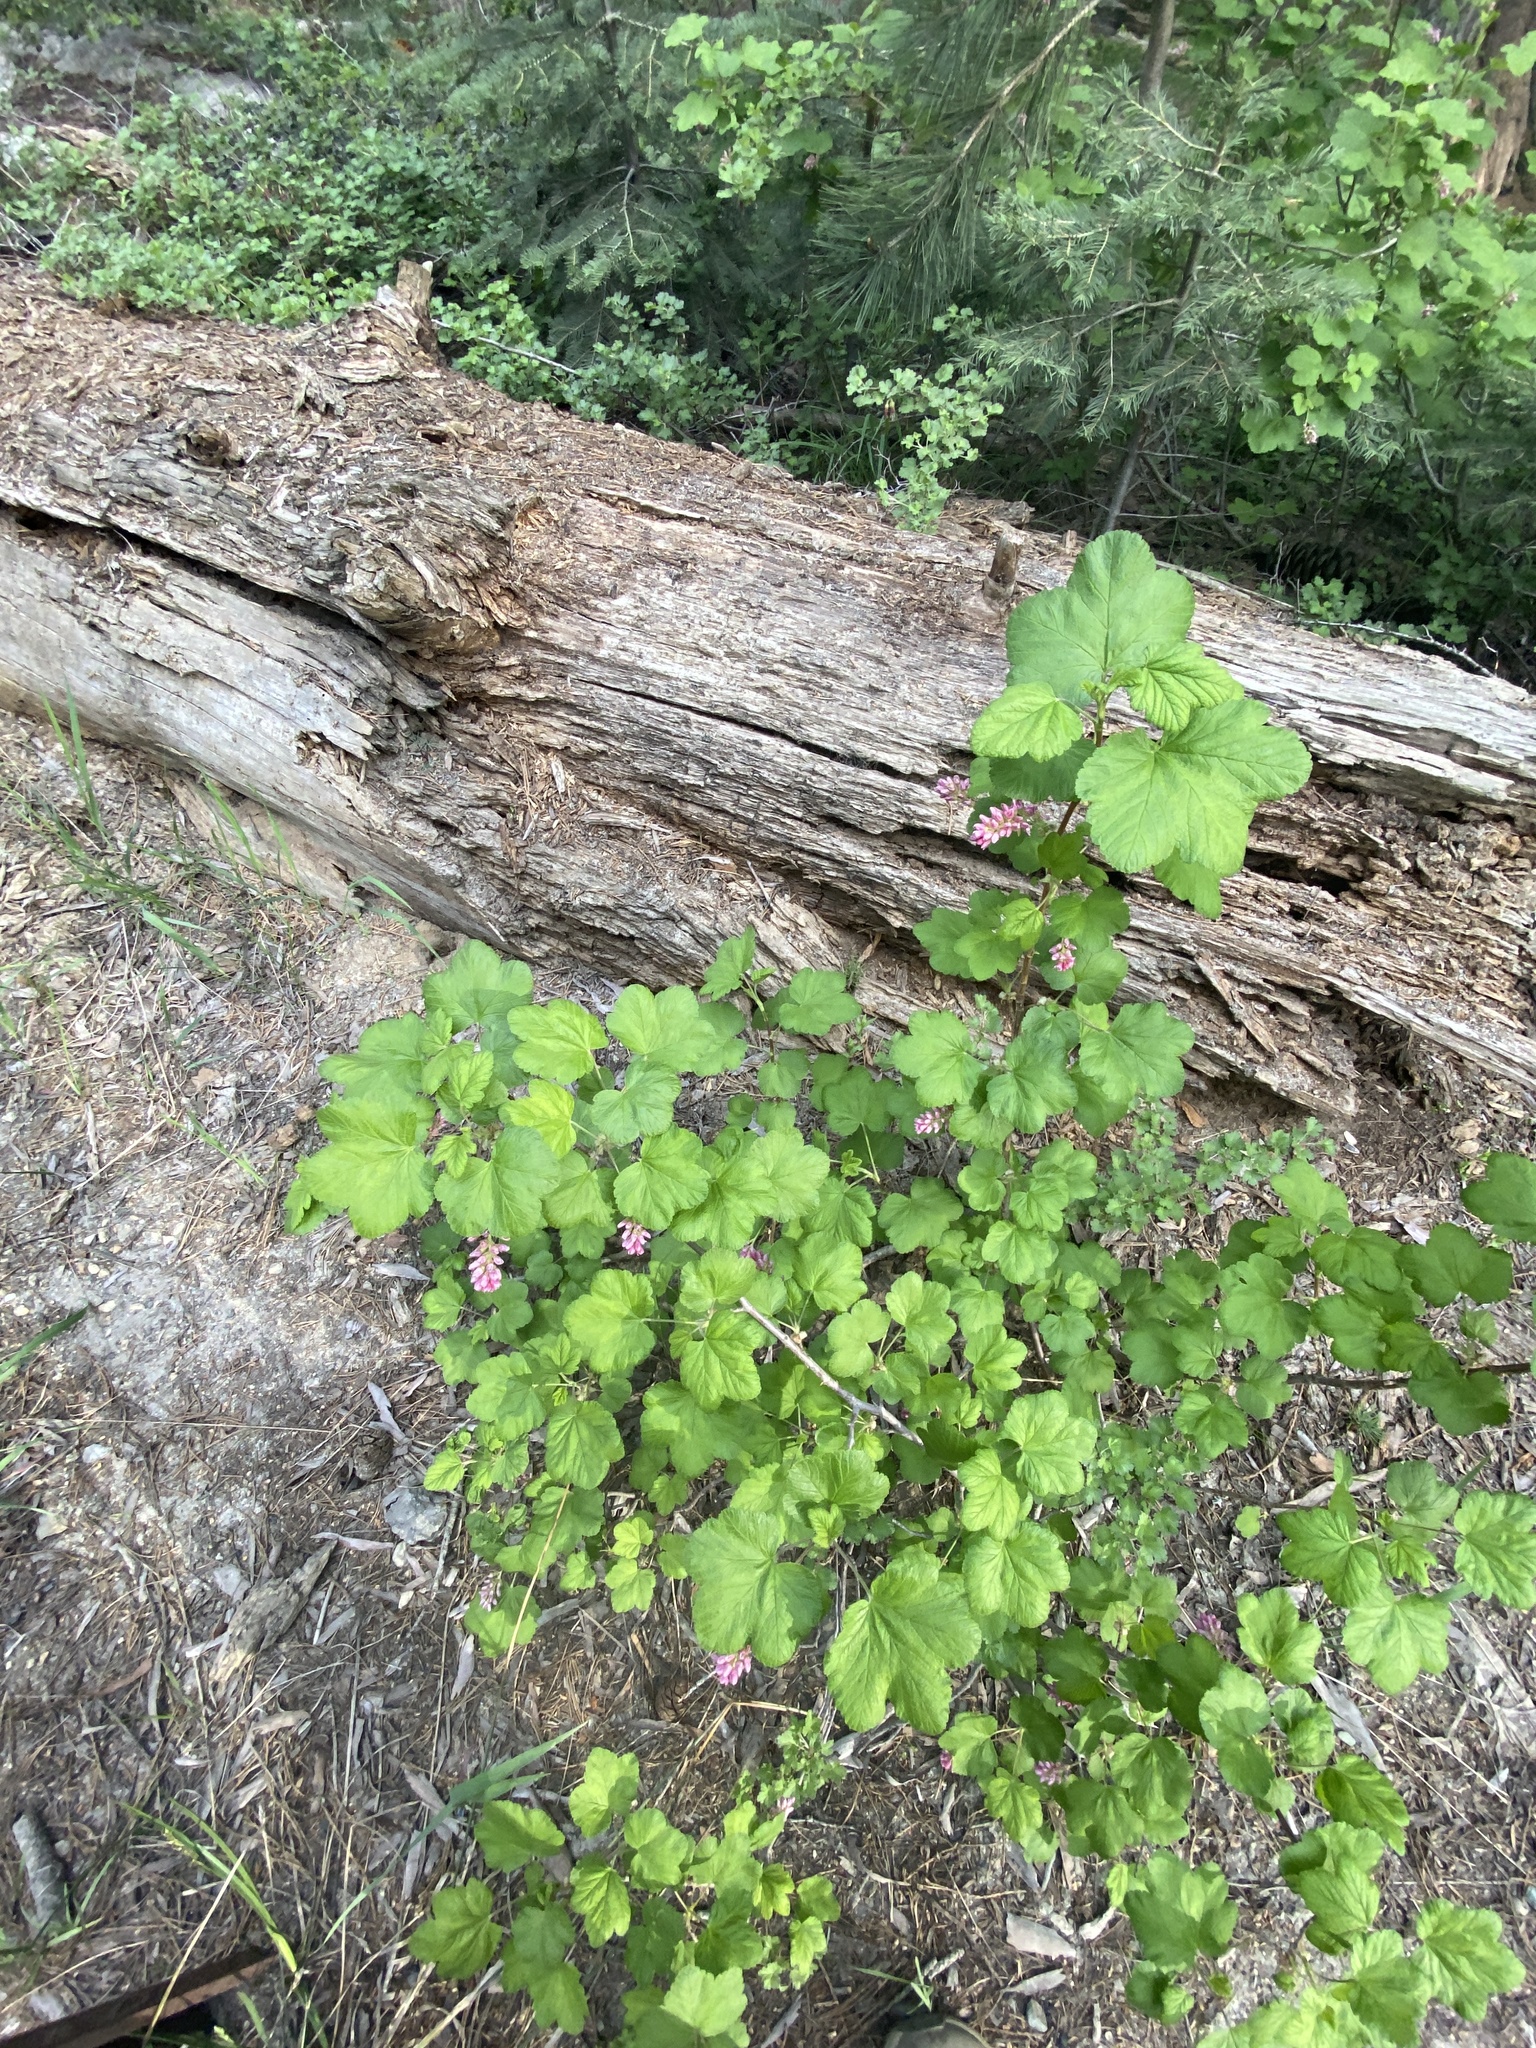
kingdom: Plantae
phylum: Tracheophyta
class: Magnoliopsida
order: Saxifragales
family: Grossulariaceae
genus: Ribes
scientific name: Ribes nevadense
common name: Mountain pink currant
